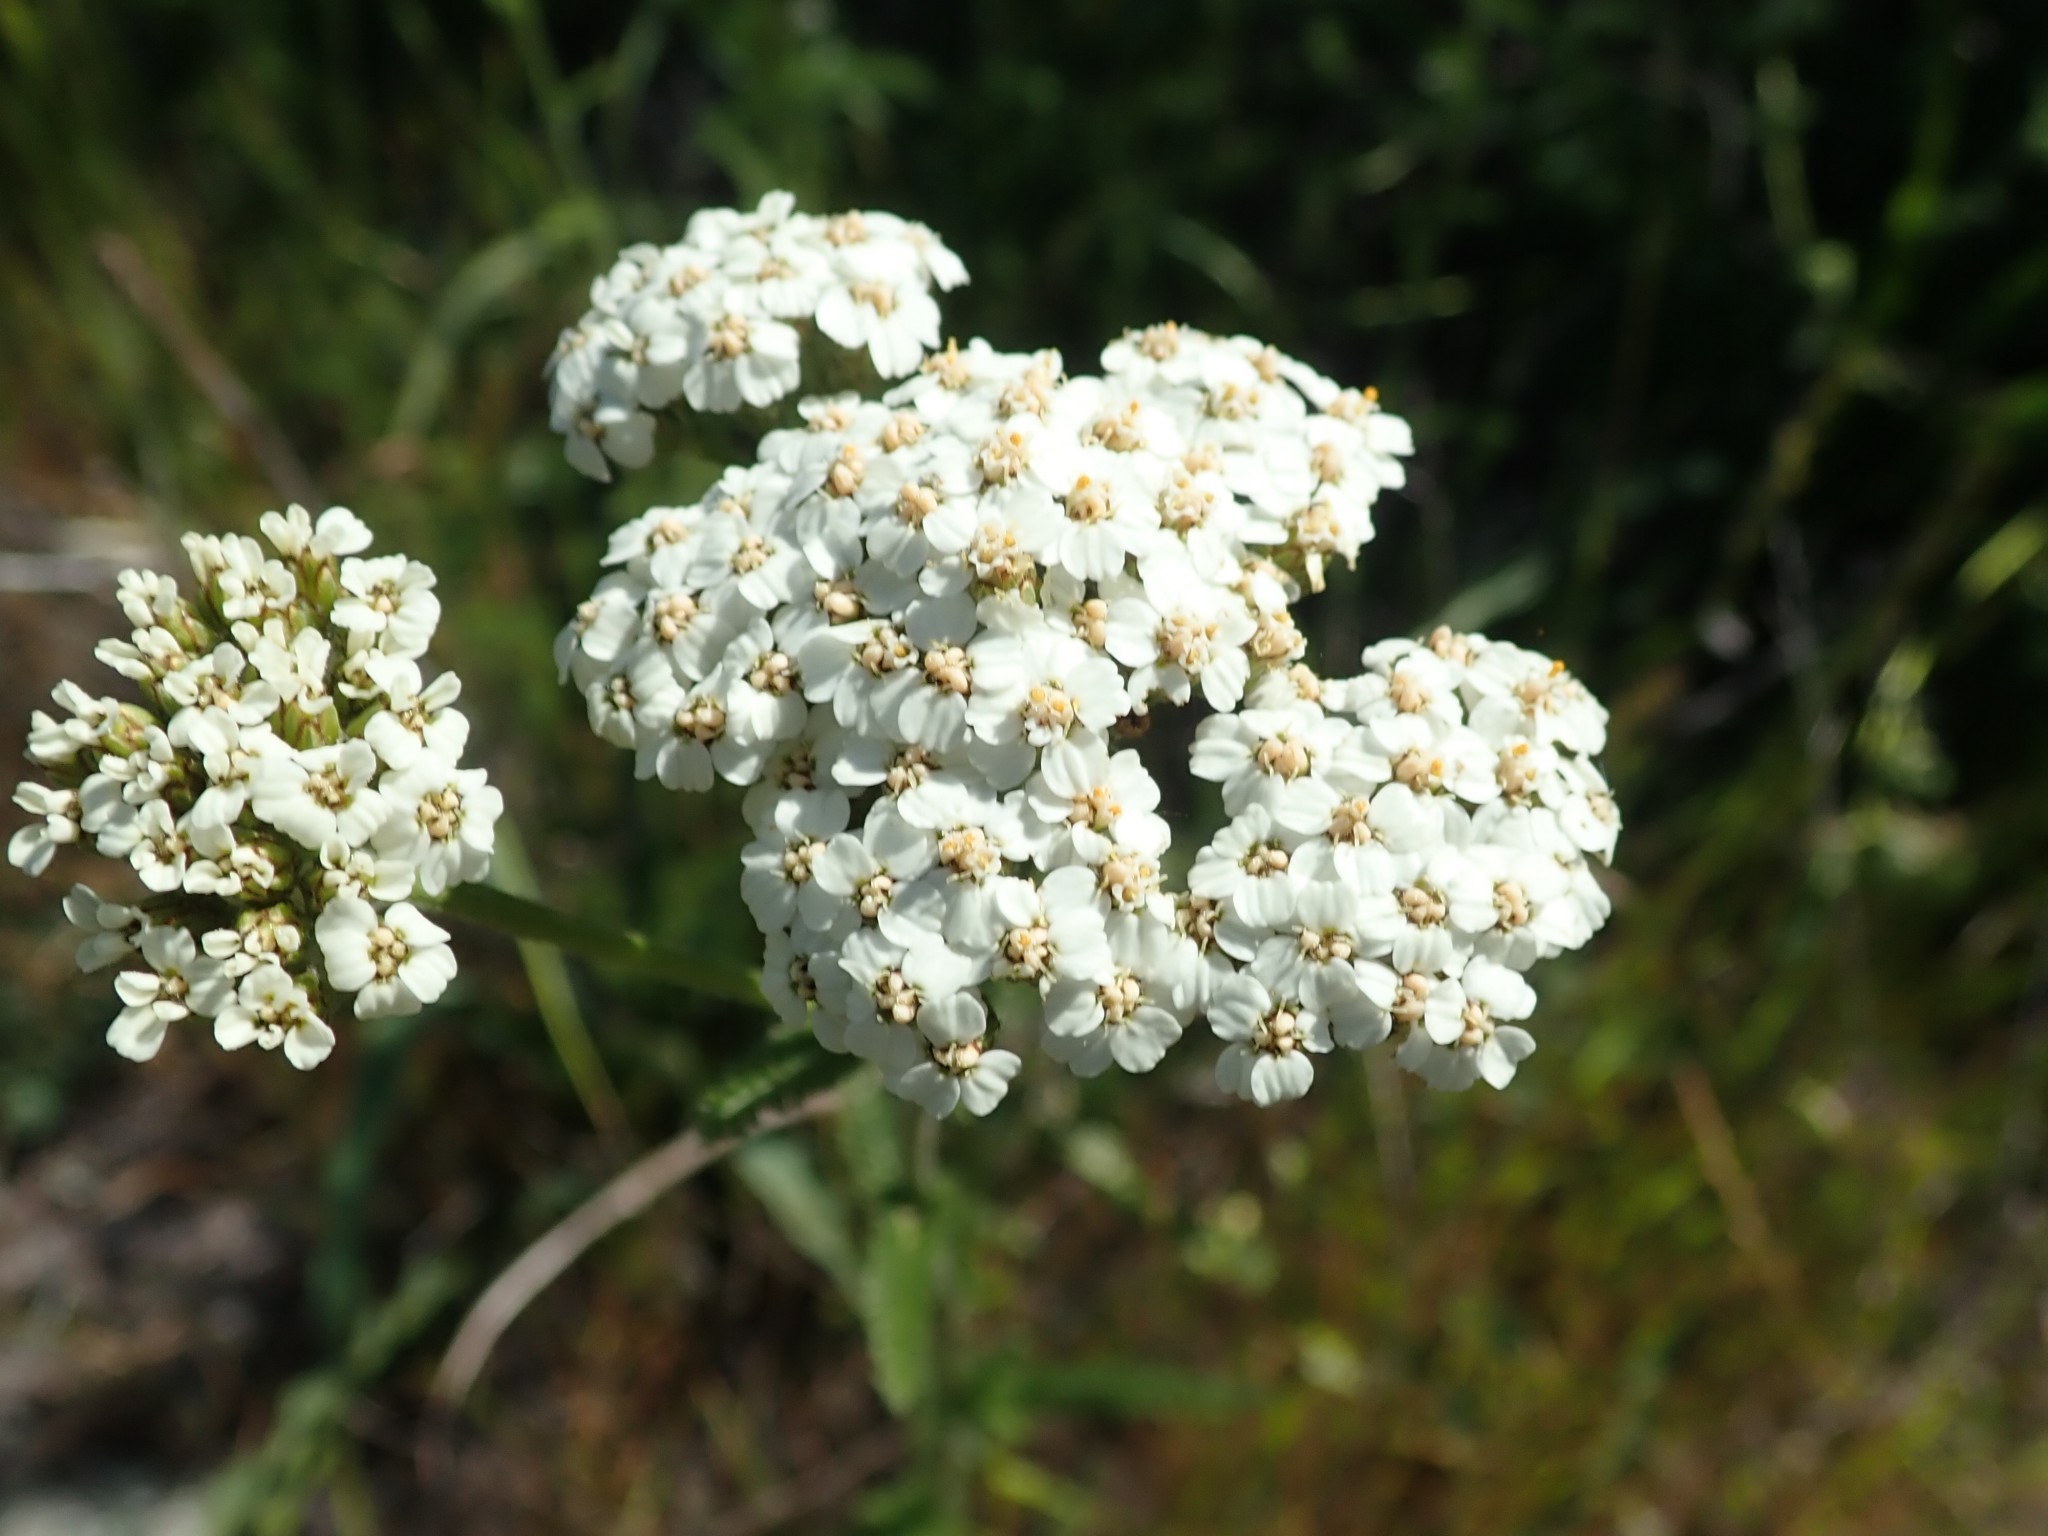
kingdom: Plantae
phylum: Tracheophyta
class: Magnoliopsida
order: Asterales
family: Asteraceae
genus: Achillea
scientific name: Achillea millefolium
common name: Yarrow
